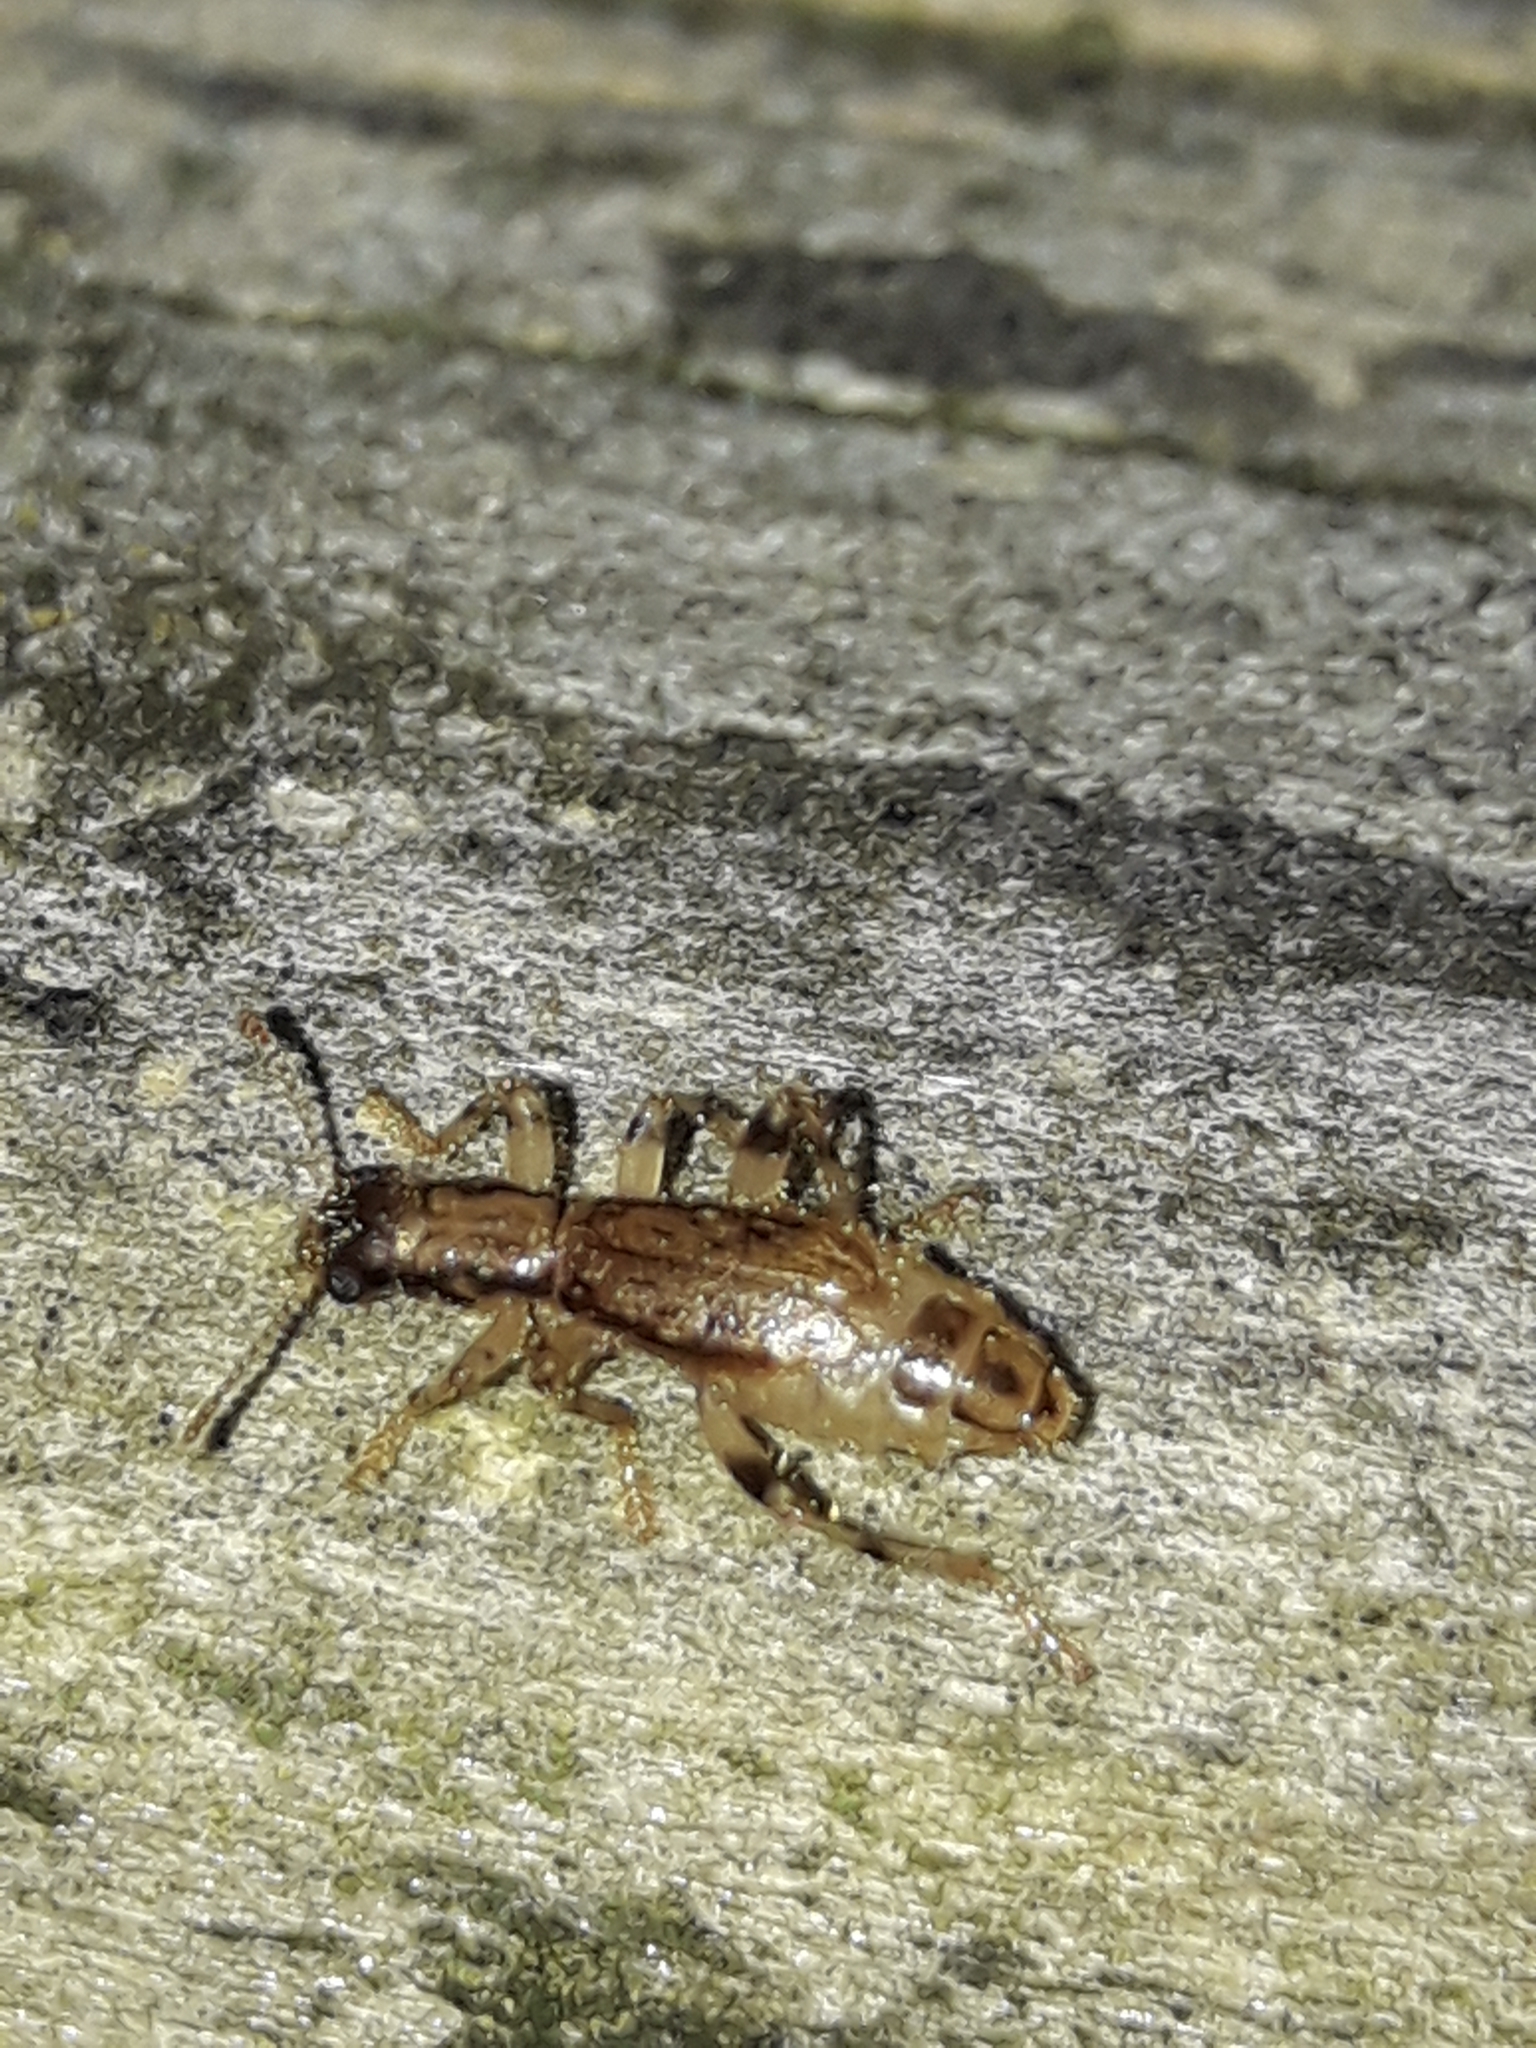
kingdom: Animalia
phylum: Arthropoda
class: Insecta
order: Coleoptera
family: Cleridae
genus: Lemidia
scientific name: Lemidia
